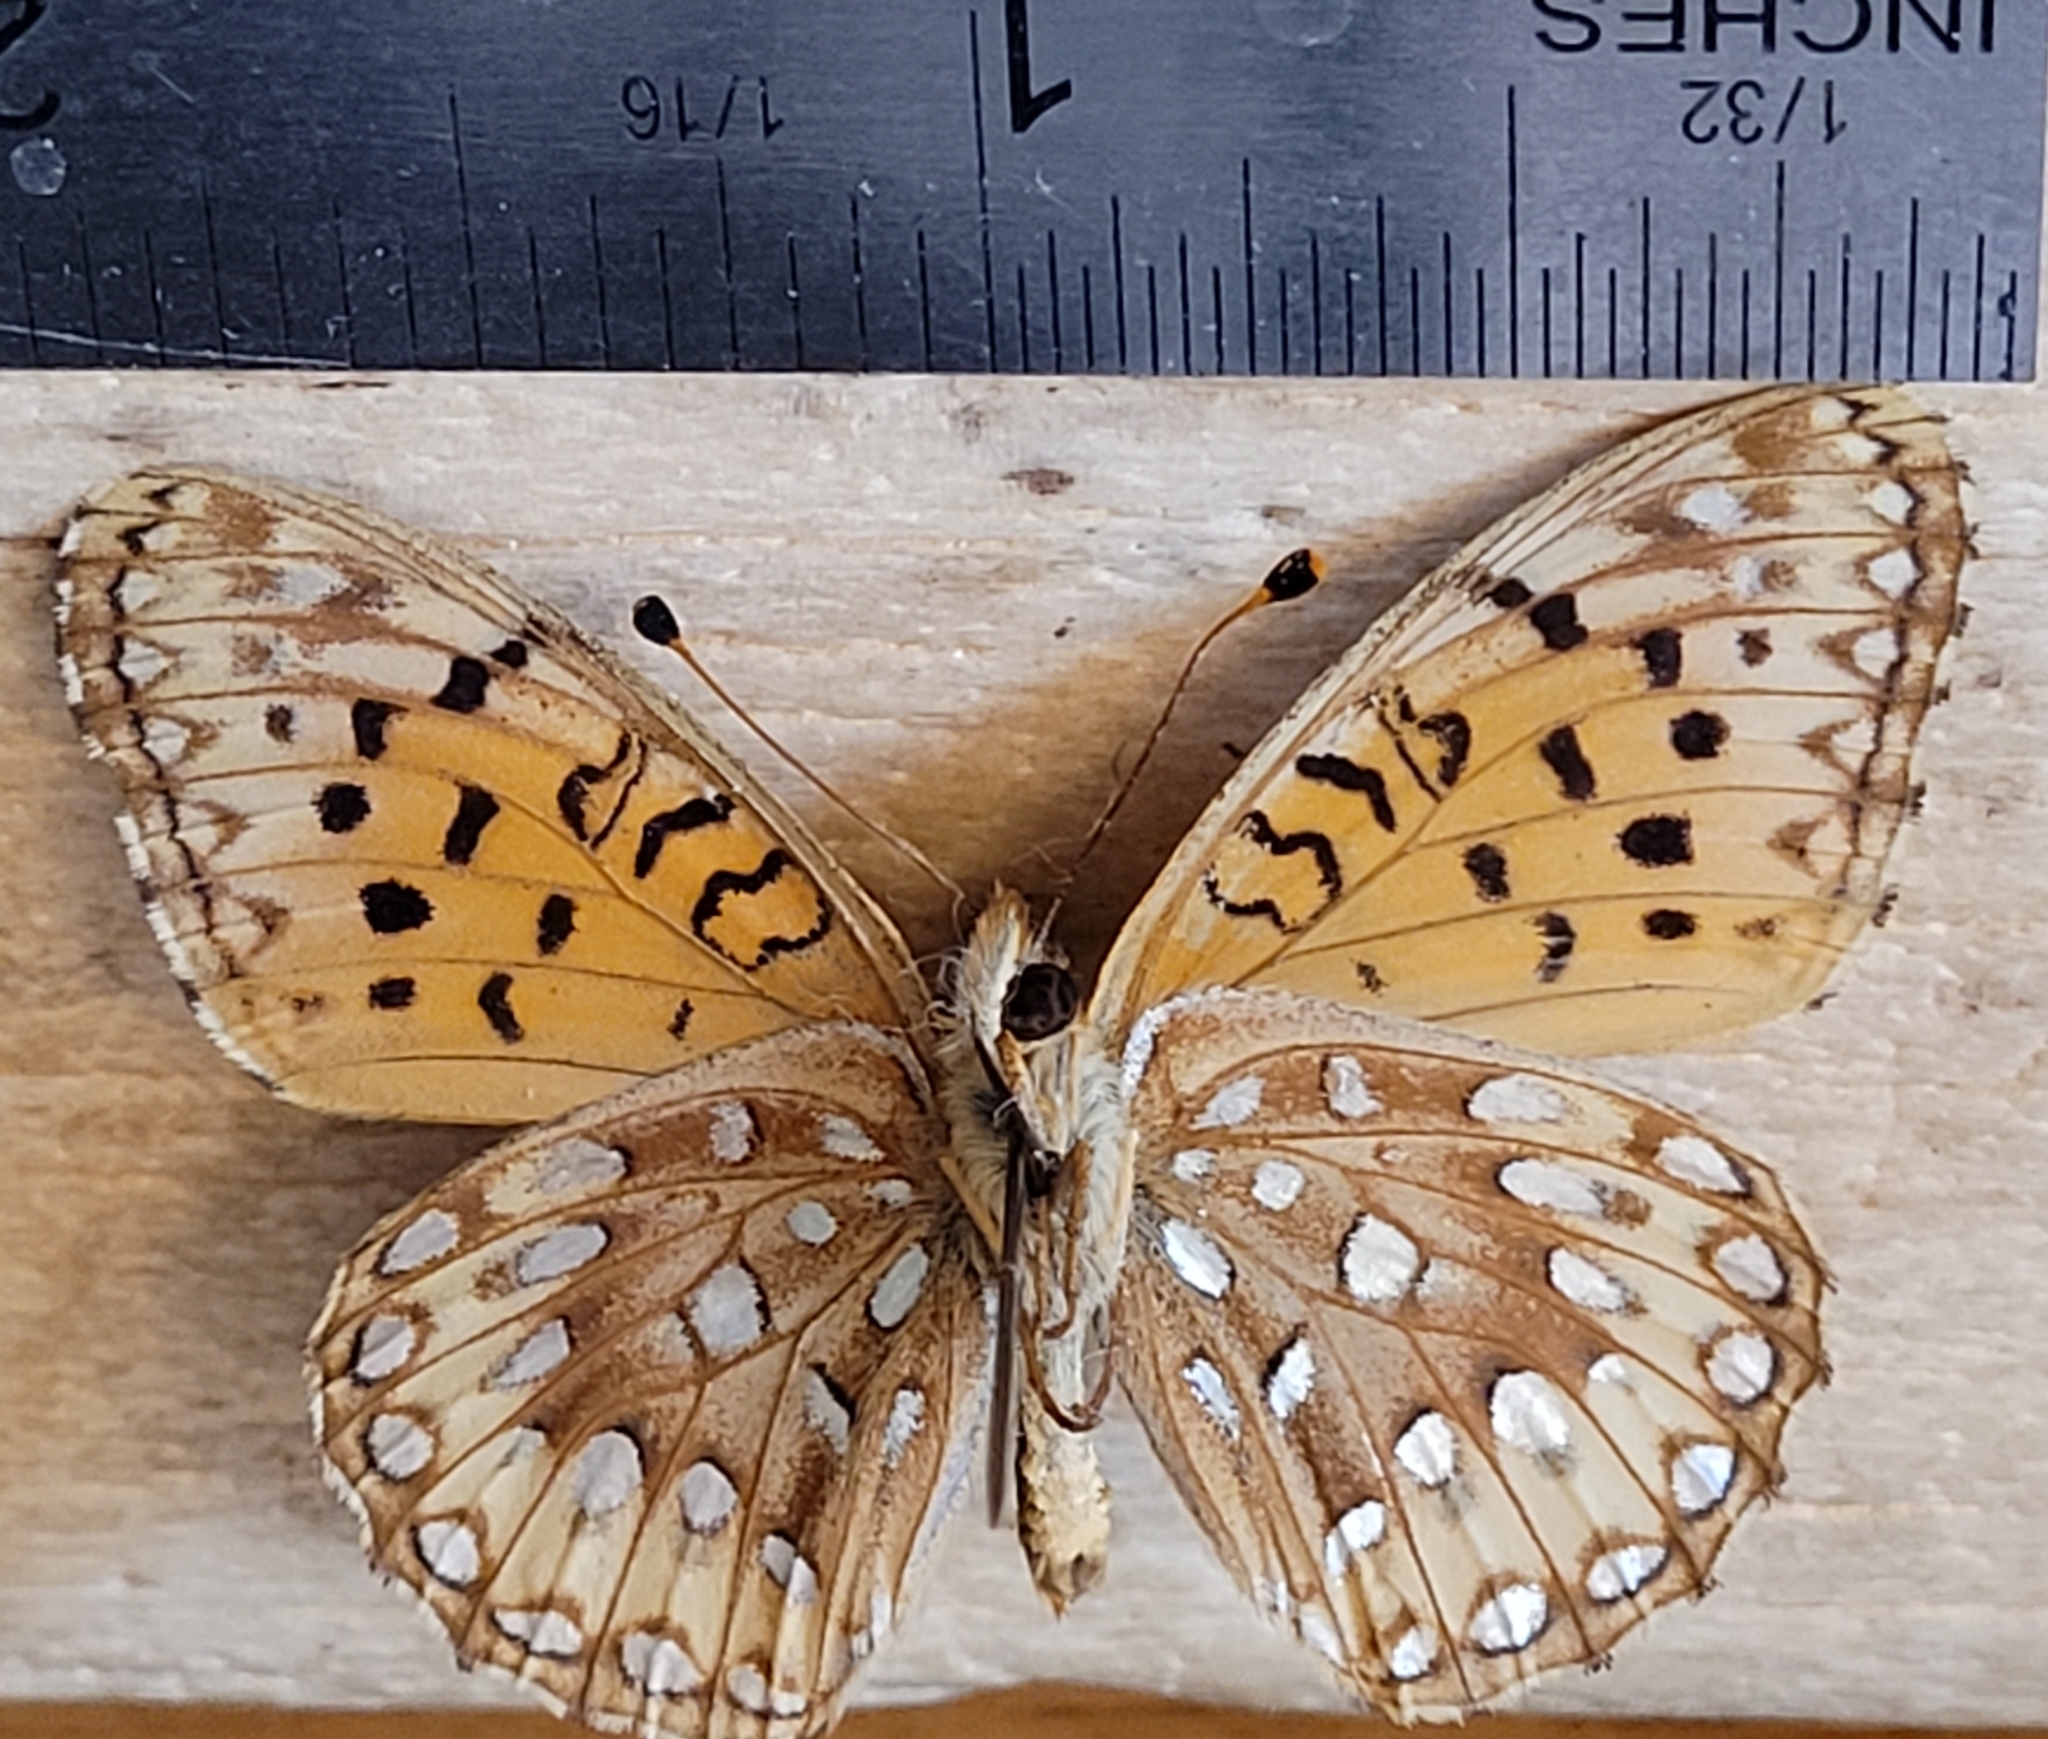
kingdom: Animalia
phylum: Arthropoda
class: Insecta
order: Lepidoptera
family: Nymphalidae
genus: Speyeria
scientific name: Speyeria atlantis
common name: Atlantis fritillary
